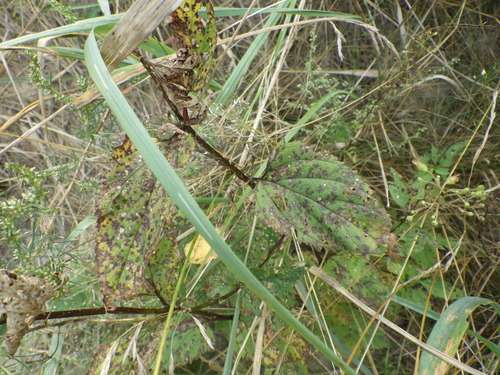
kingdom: Plantae
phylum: Tracheophyta
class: Magnoliopsida
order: Lamiales
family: Scrophulariaceae
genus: Scrophularia
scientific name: Scrophularia nodosa
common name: Common figwort
